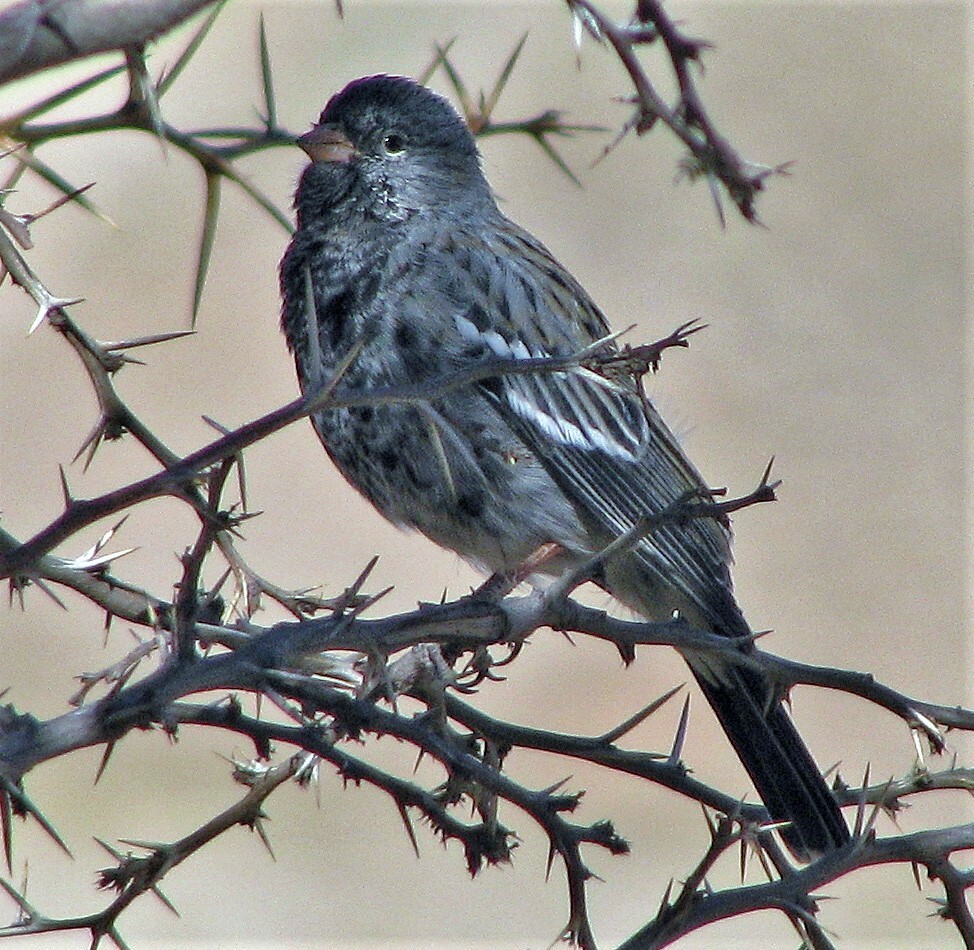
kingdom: Animalia
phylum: Chordata
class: Aves
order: Passeriformes
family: Thraupidae
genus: Rhopospina
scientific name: Rhopospina fruticeti
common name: Mourning sierra finch
